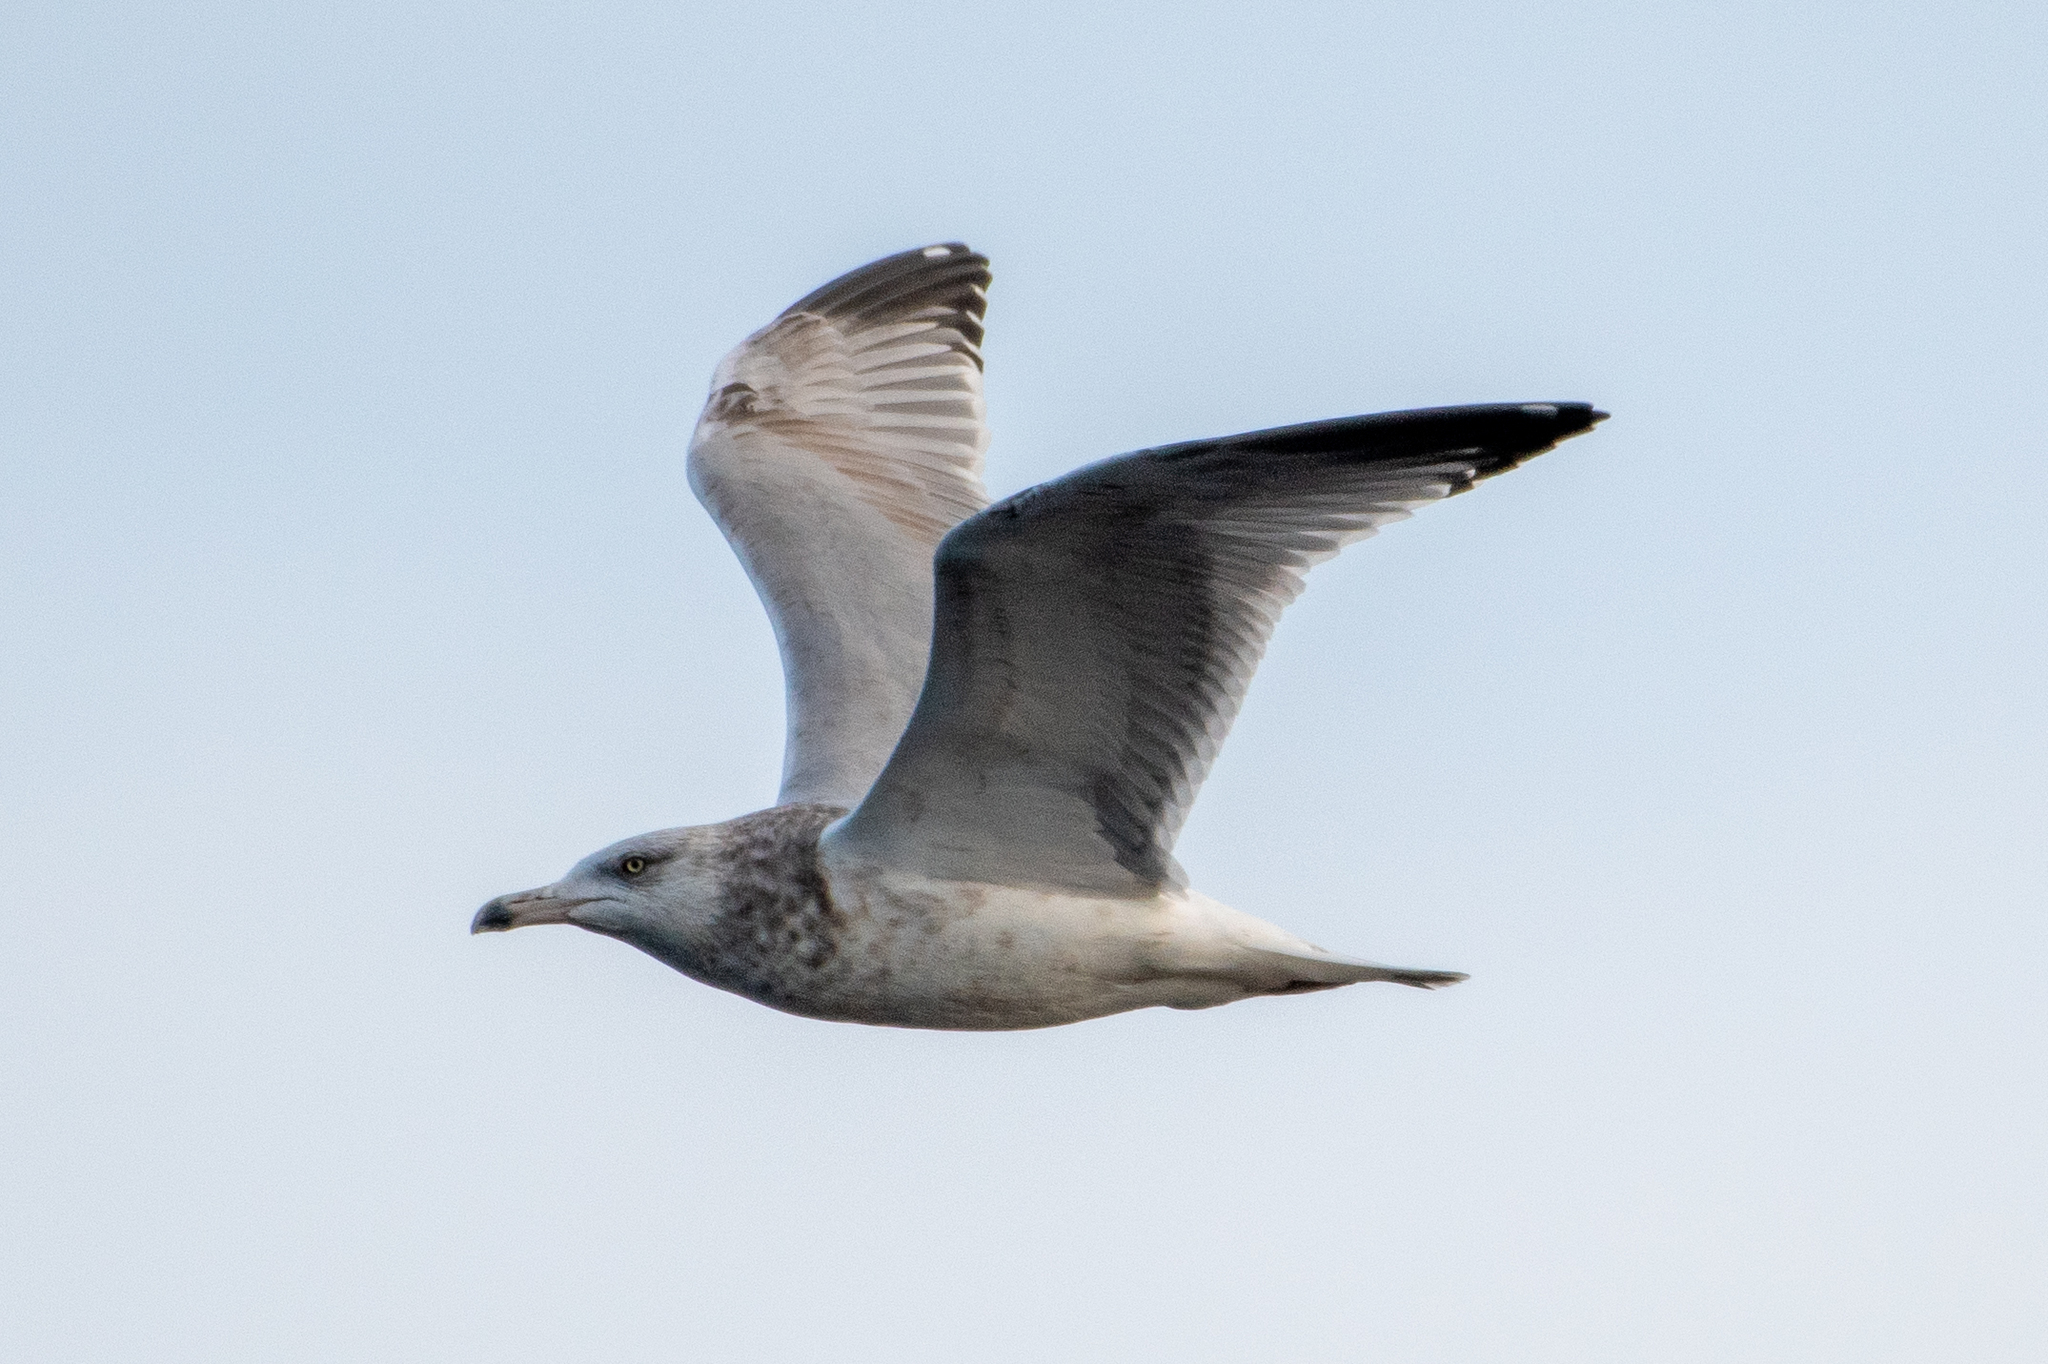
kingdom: Animalia
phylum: Chordata
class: Aves
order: Charadriiformes
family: Laridae
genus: Larus
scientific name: Larus argentatus
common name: Herring gull
